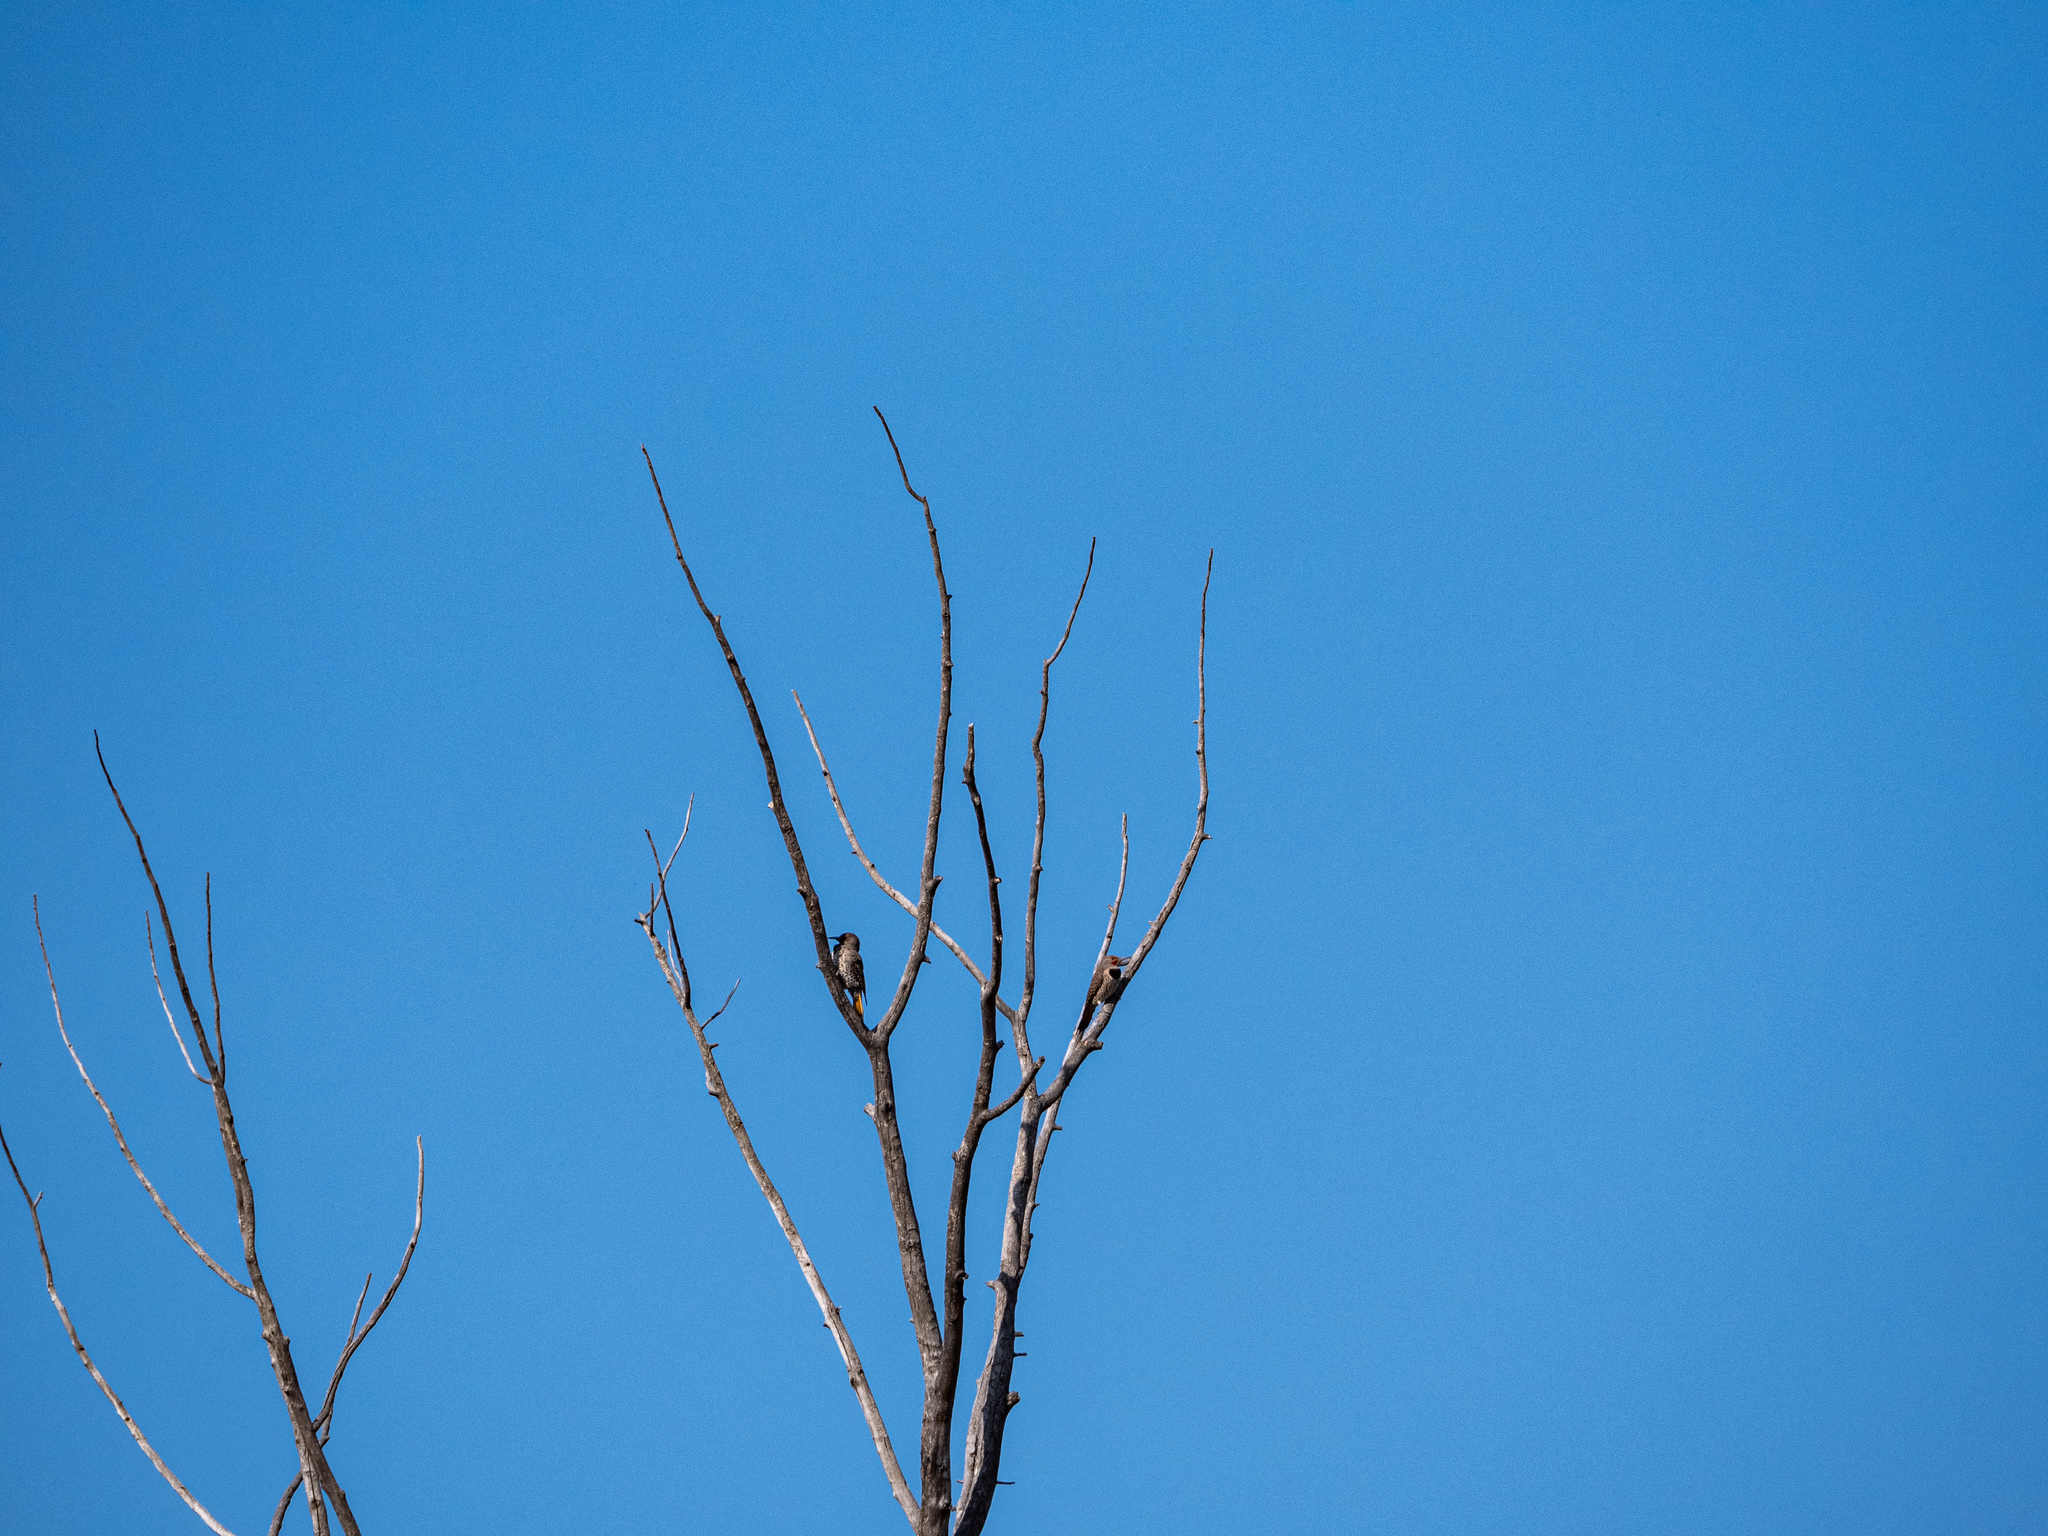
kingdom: Animalia
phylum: Chordata
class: Aves
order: Piciformes
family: Picidae
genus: Colaptes
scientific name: Colaptes auratus
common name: Northern flicker
